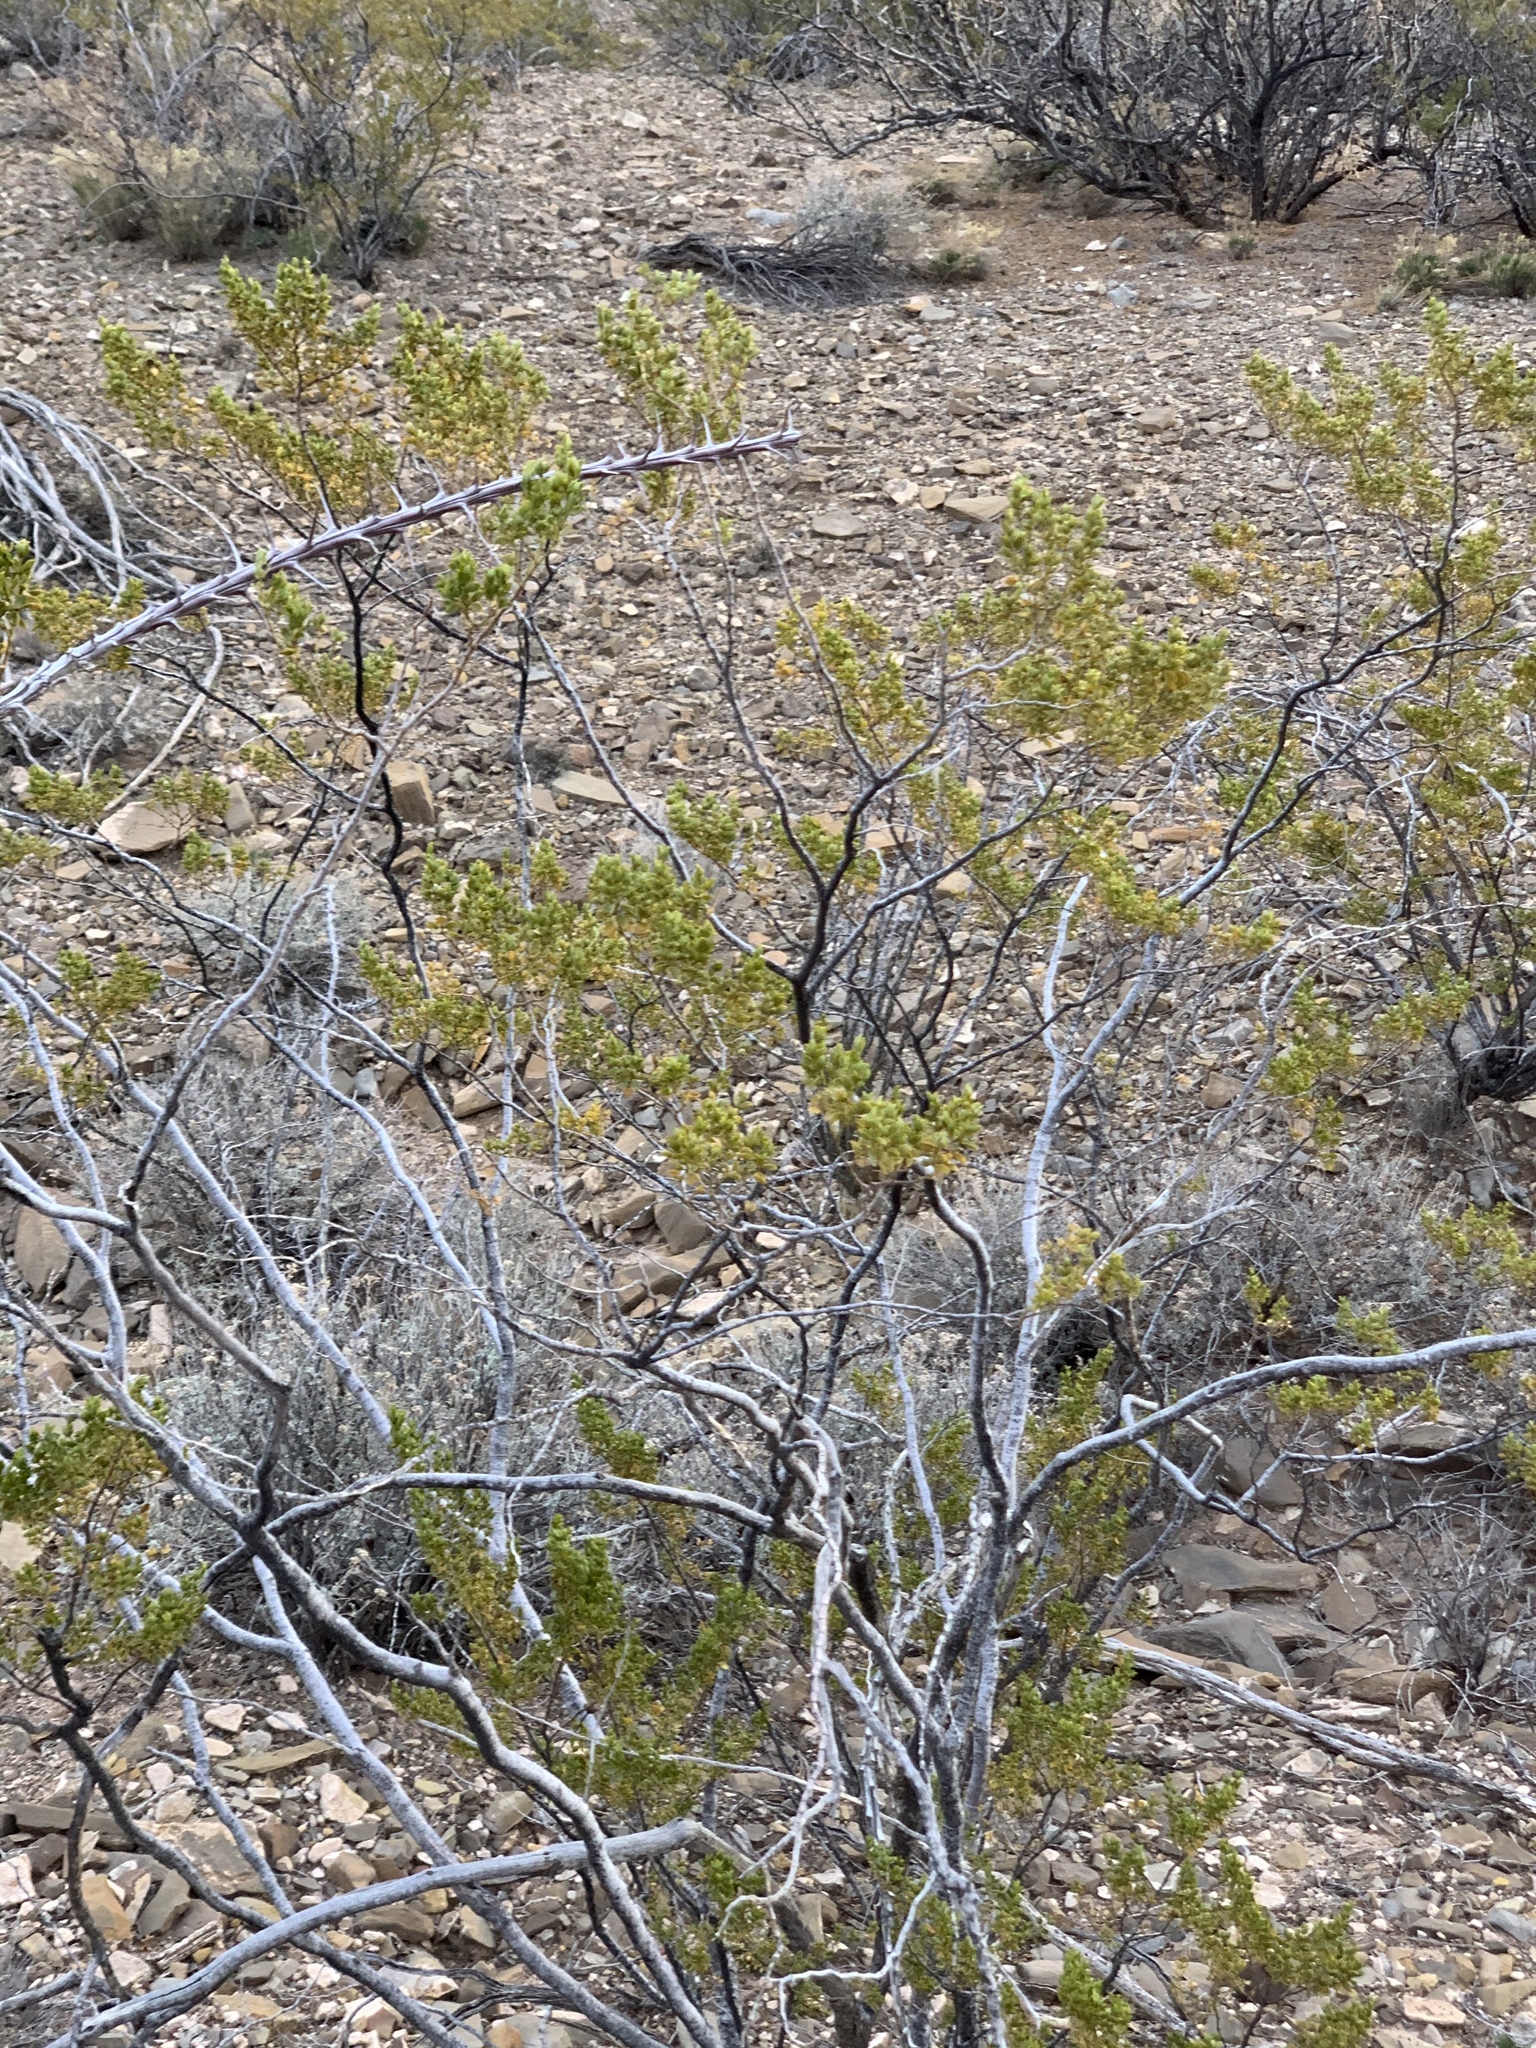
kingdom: Plantae
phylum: Tracheophyta
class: Magnoliopsida
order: Zygophyllales
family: Zygophyllaceae
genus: Larrea
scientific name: Larrea tridentata
